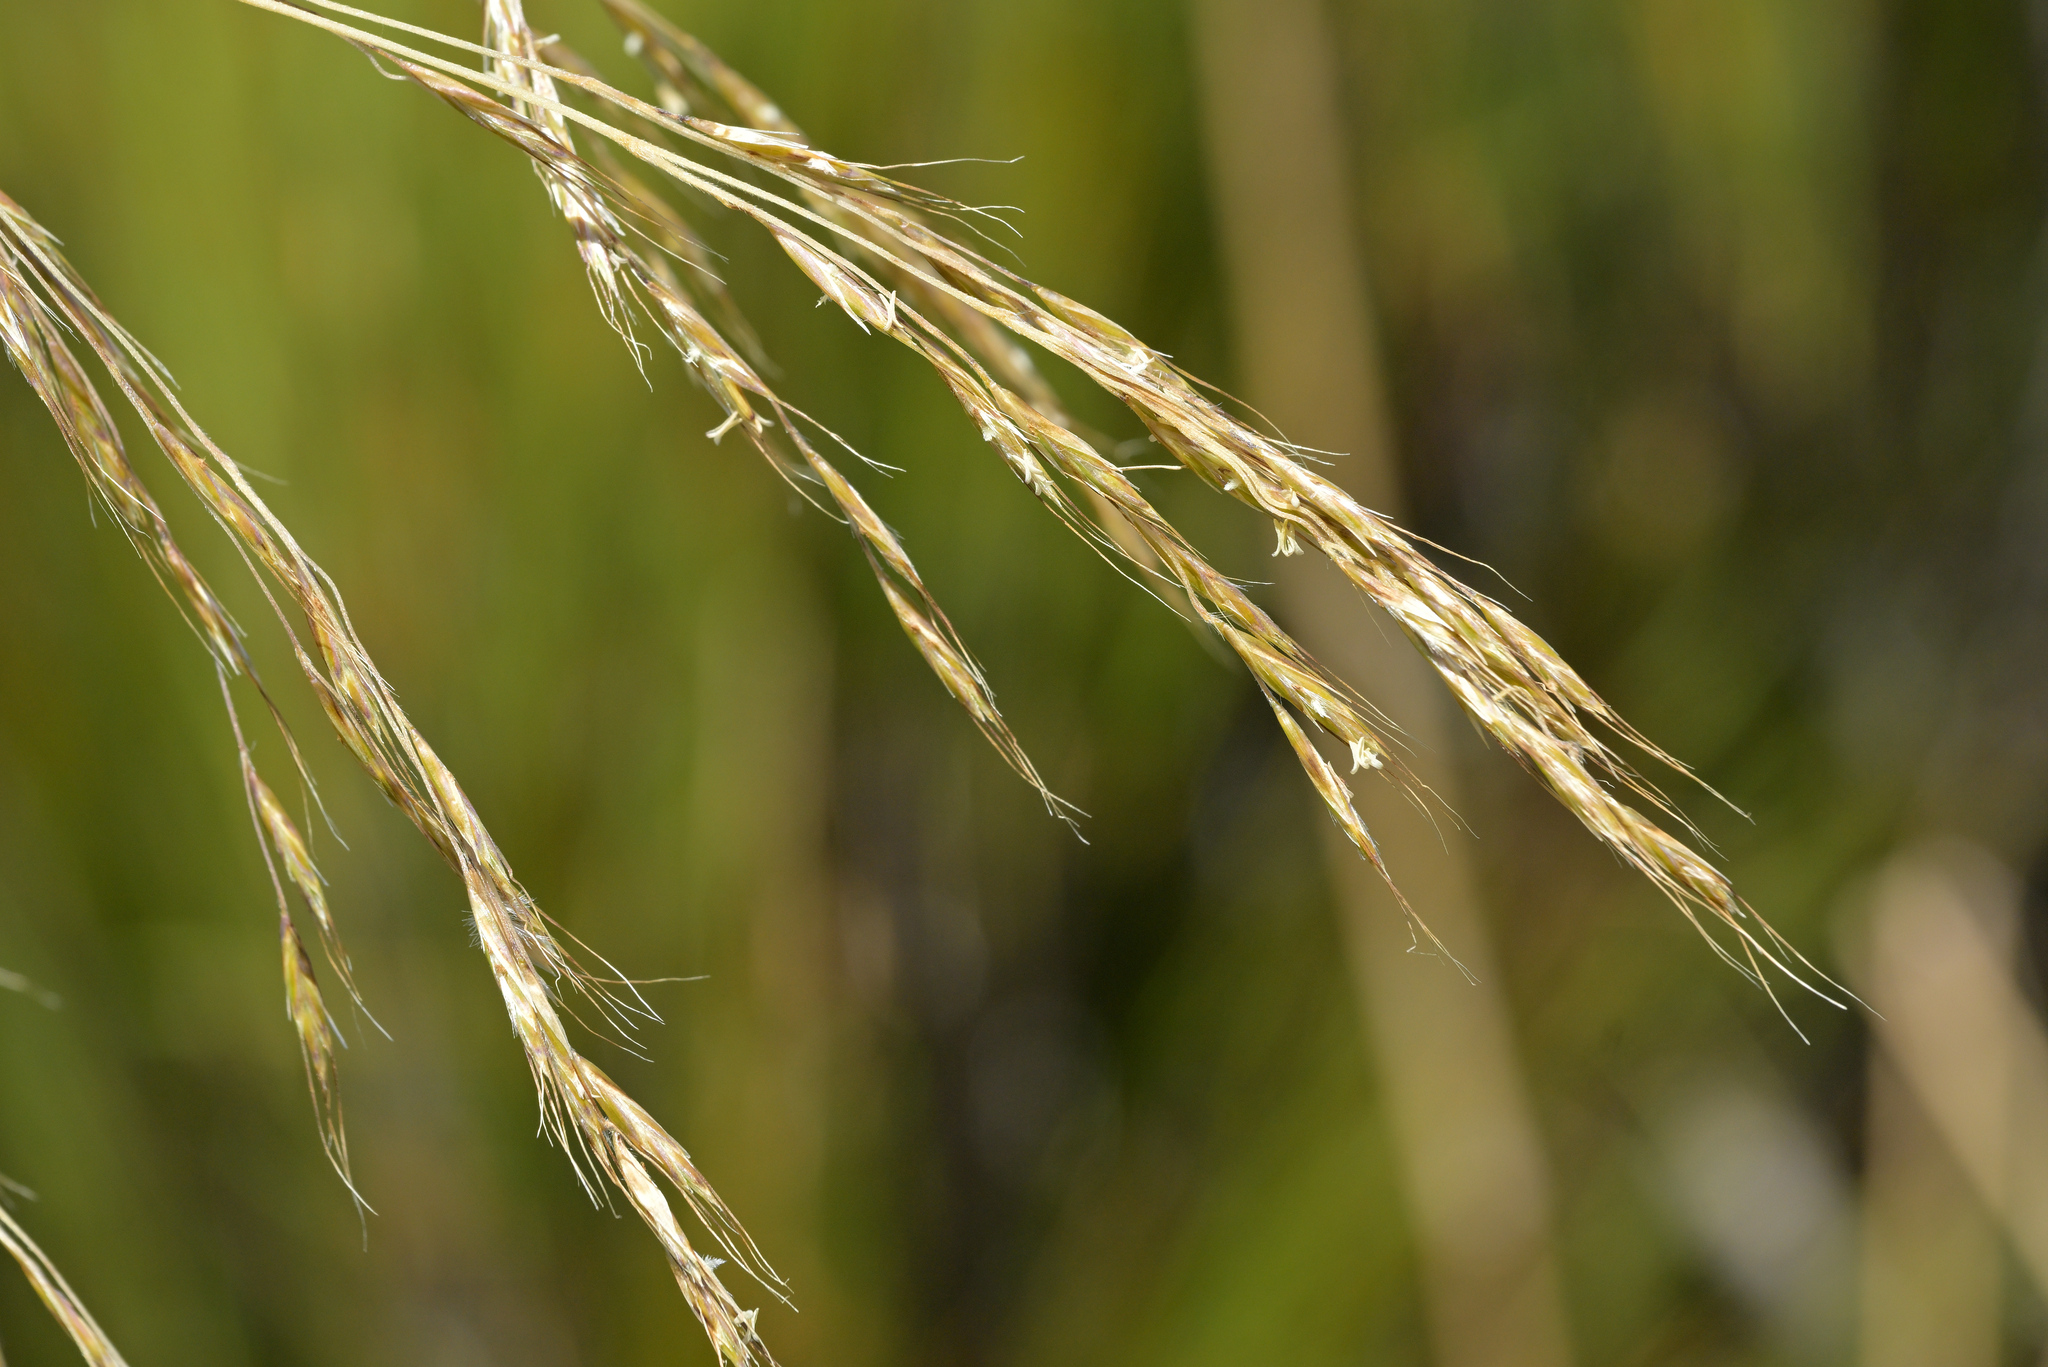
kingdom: Plantae
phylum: Tracheophyta
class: Liliopsida
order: Poales
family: Poaceae
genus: Chionochloa
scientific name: Chionochloa conspicua
